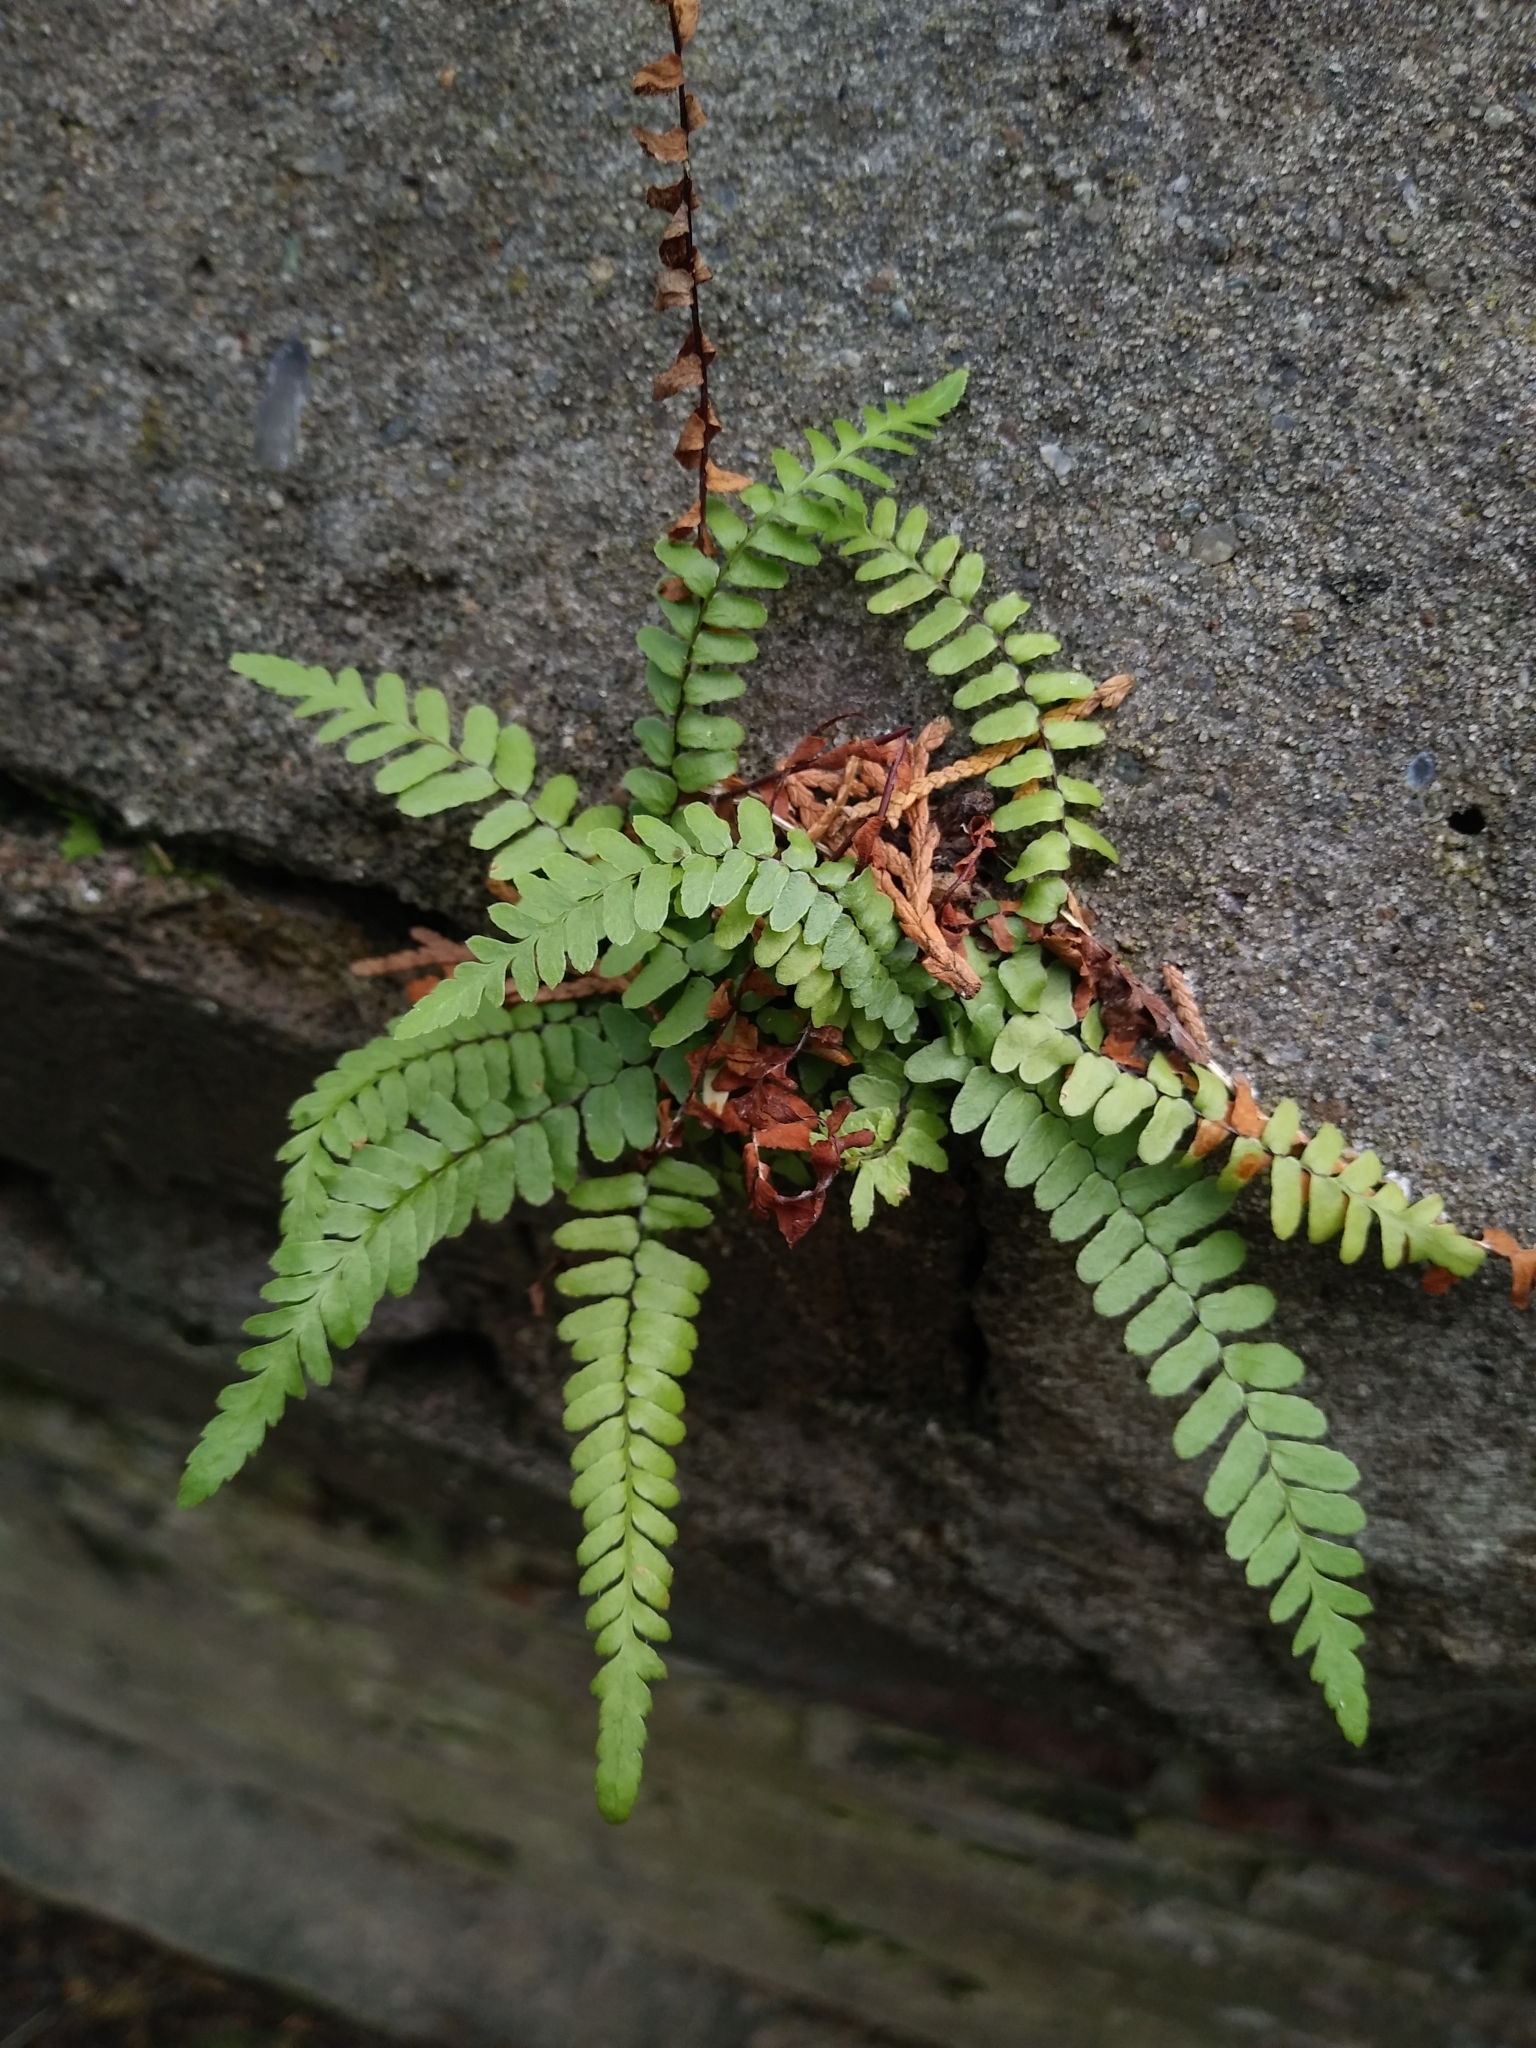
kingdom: Plantae
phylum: Tracheophyta
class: Polypodiopsida
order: Polypodiales
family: Aspleniaceae
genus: Asplenium
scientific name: Asplenium platyneuron
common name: Ebony spleenwort
